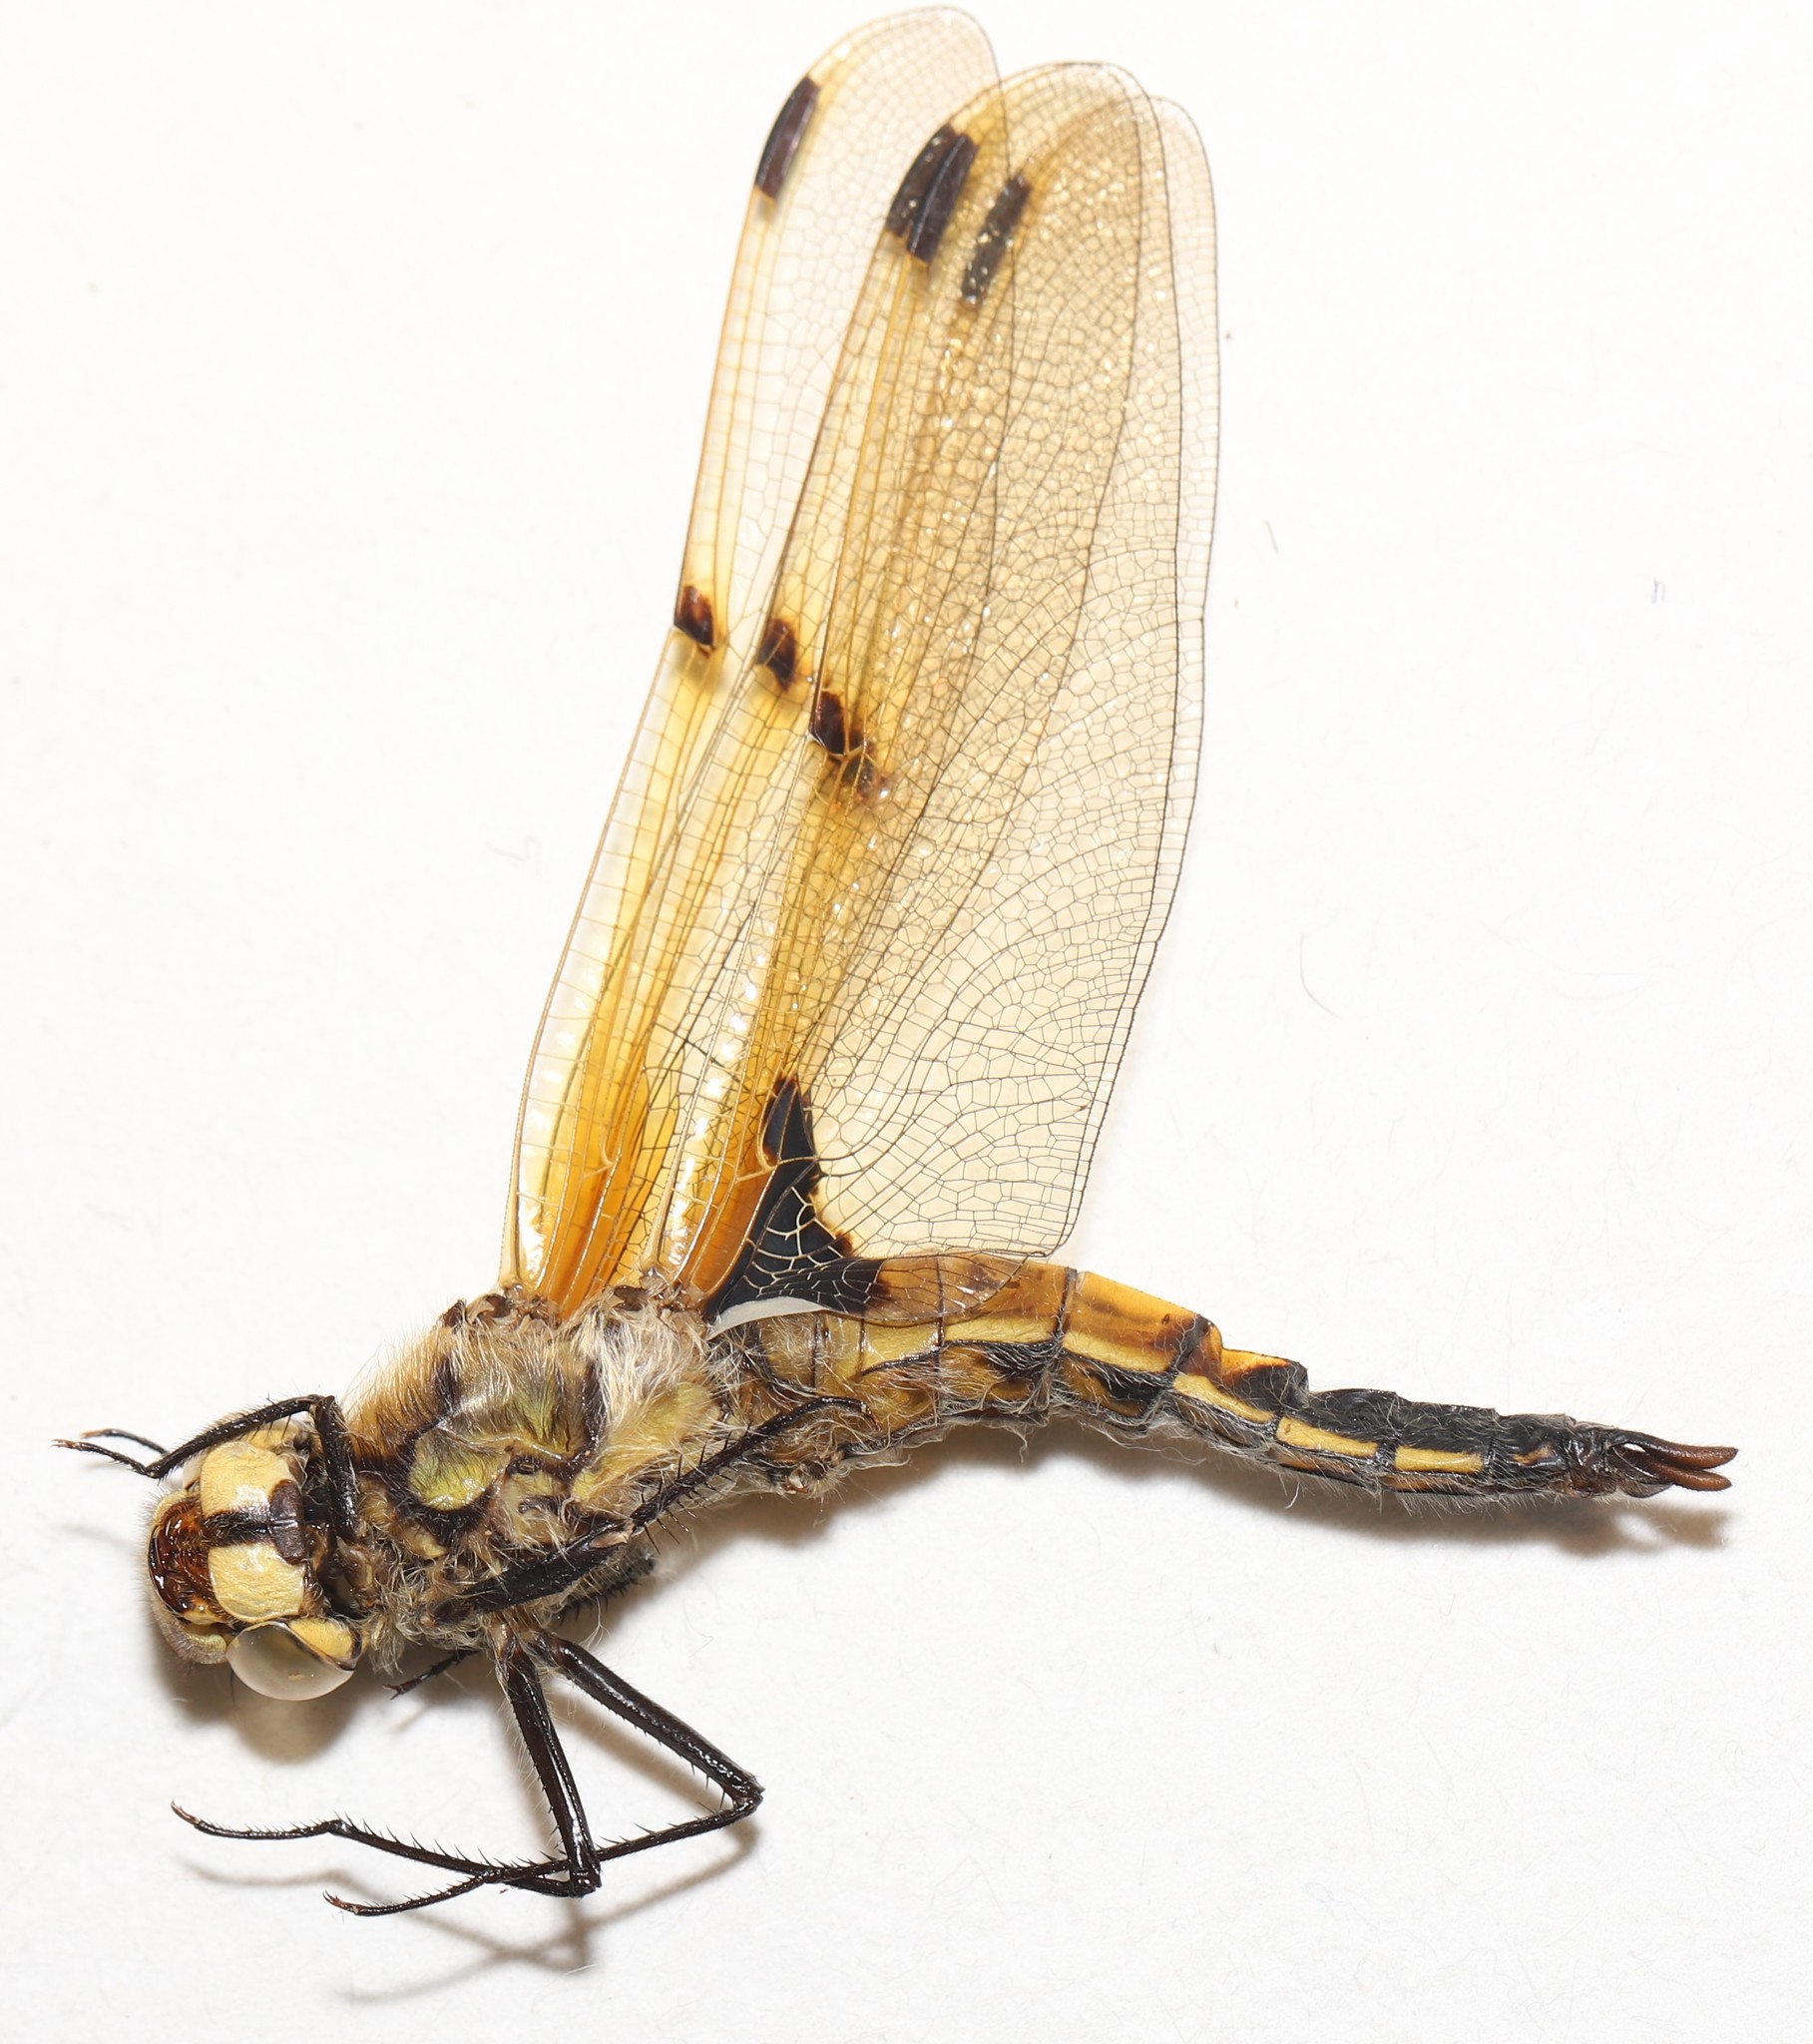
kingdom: Animalia
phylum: Arthropoda
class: Insecta
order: Odonata
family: Libellulidae
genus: Libellula
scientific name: Libellula quadrimaculata
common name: Four-spotted chaser
